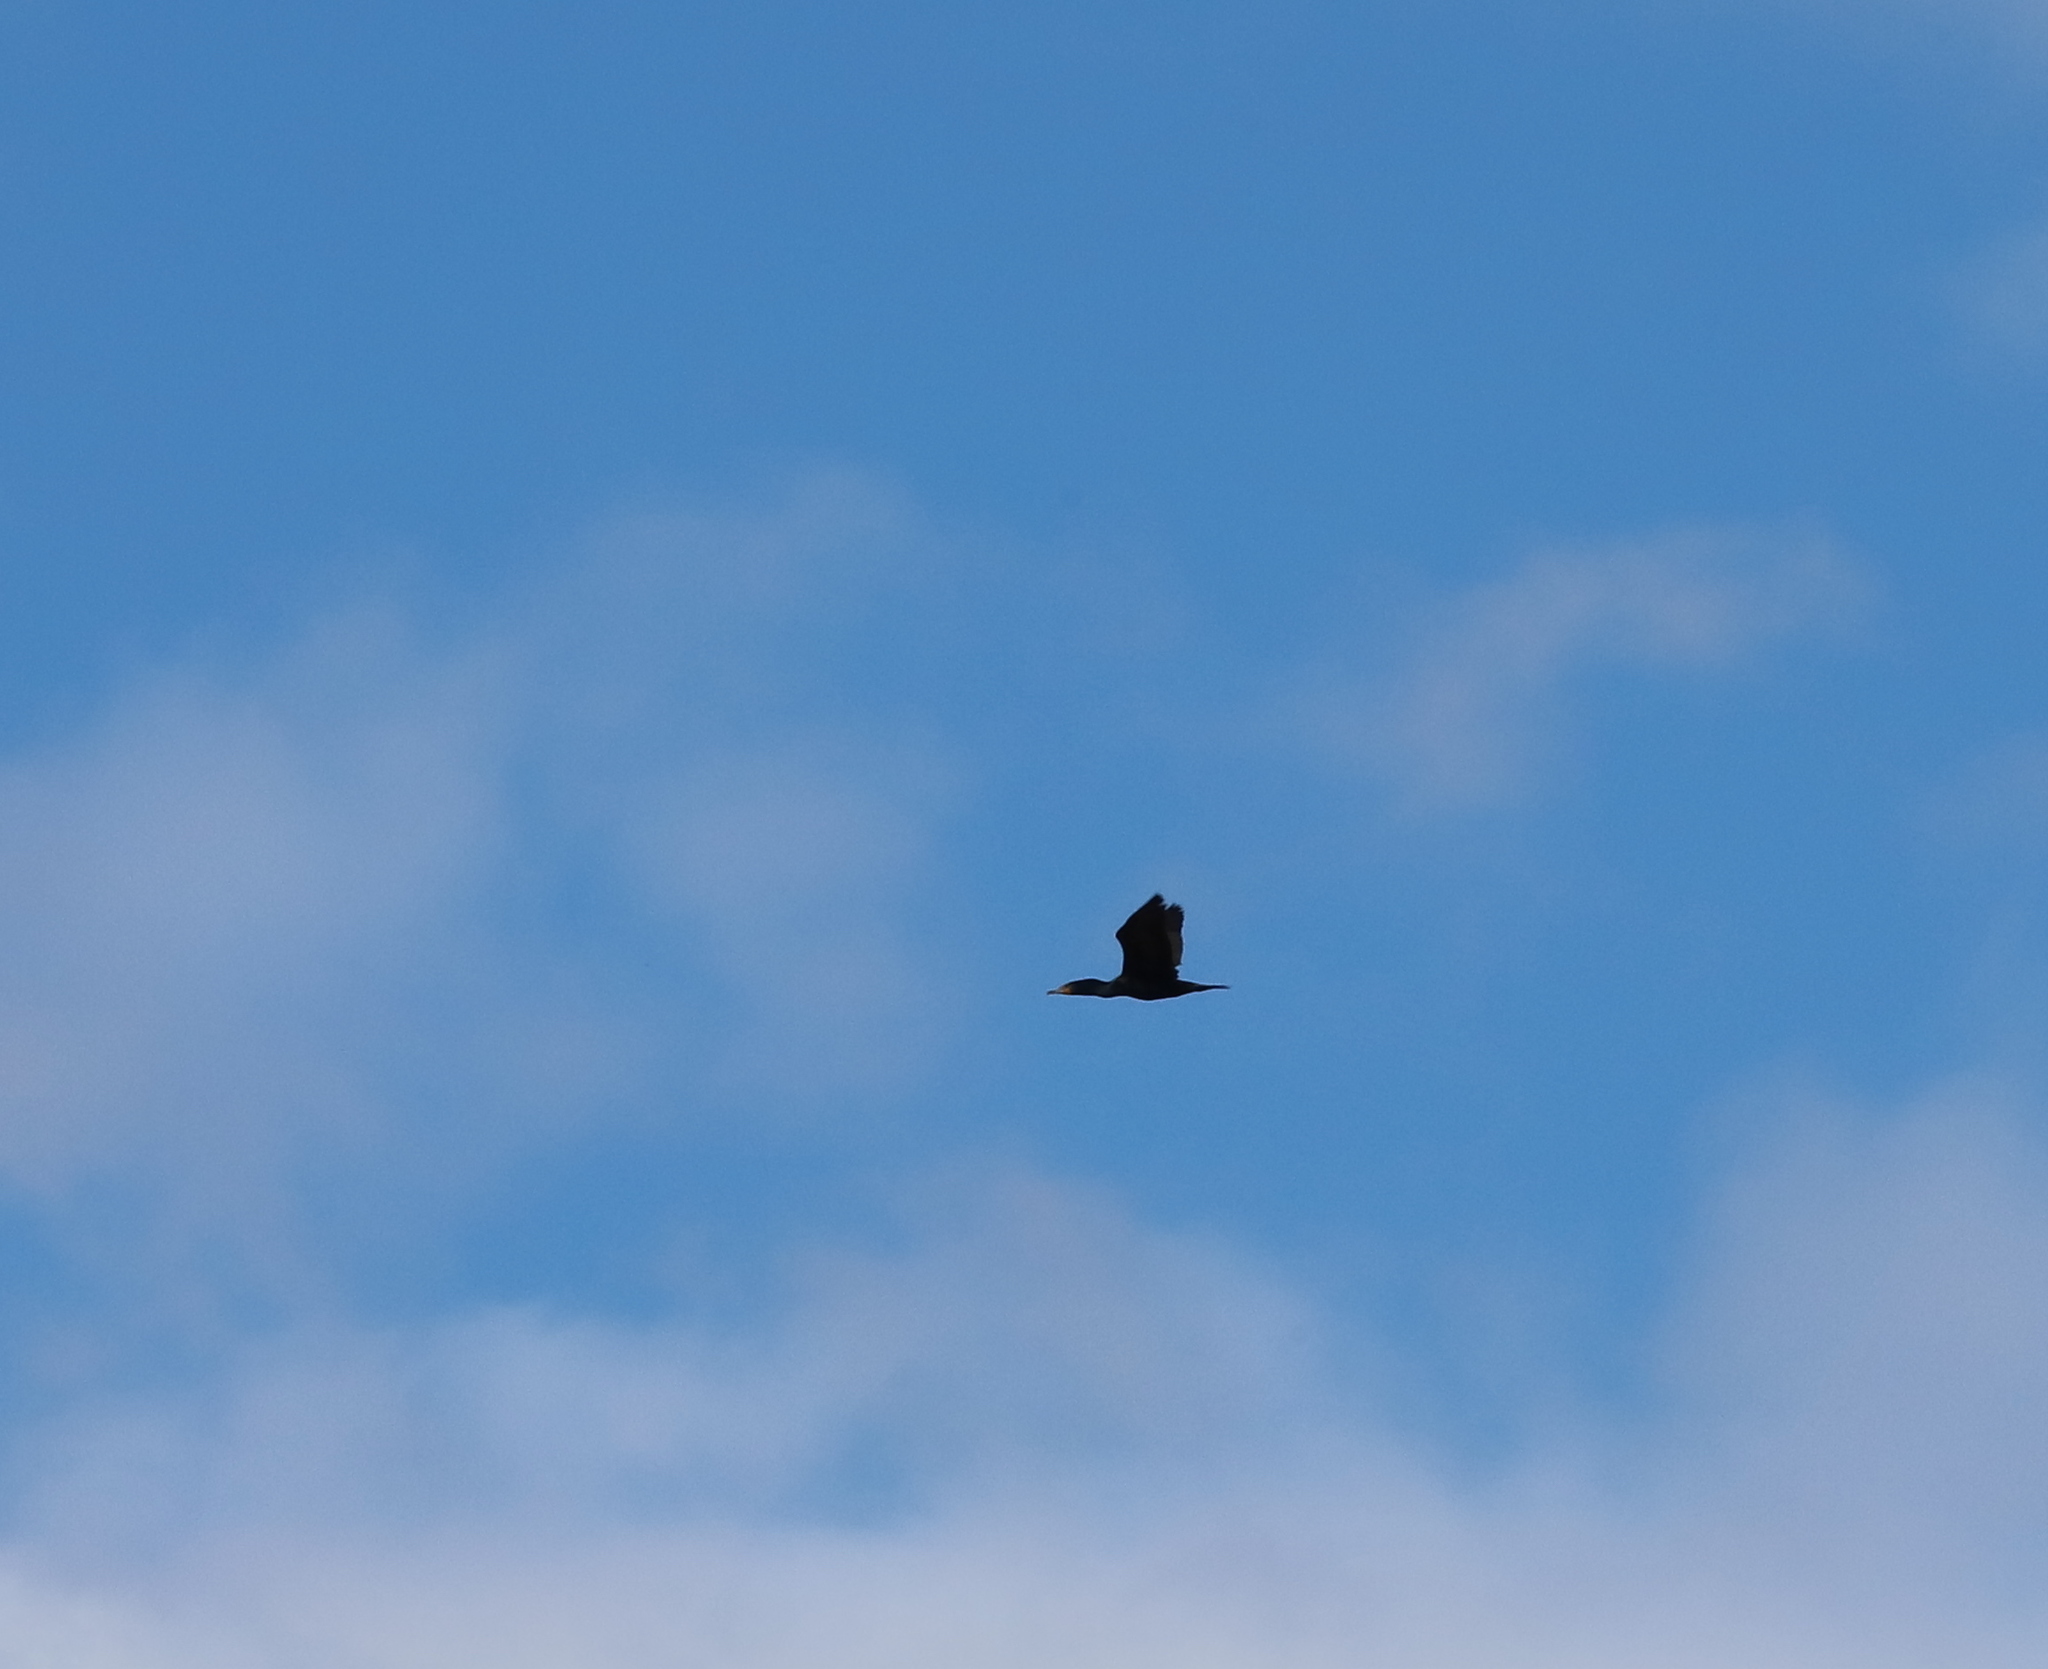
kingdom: Animalia
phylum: Chordata
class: Aves
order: Suliformes
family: Phalacrocoracidae
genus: Phalacrocorax
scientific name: Phalacrocorax auritus
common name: Double-crested cormorant
